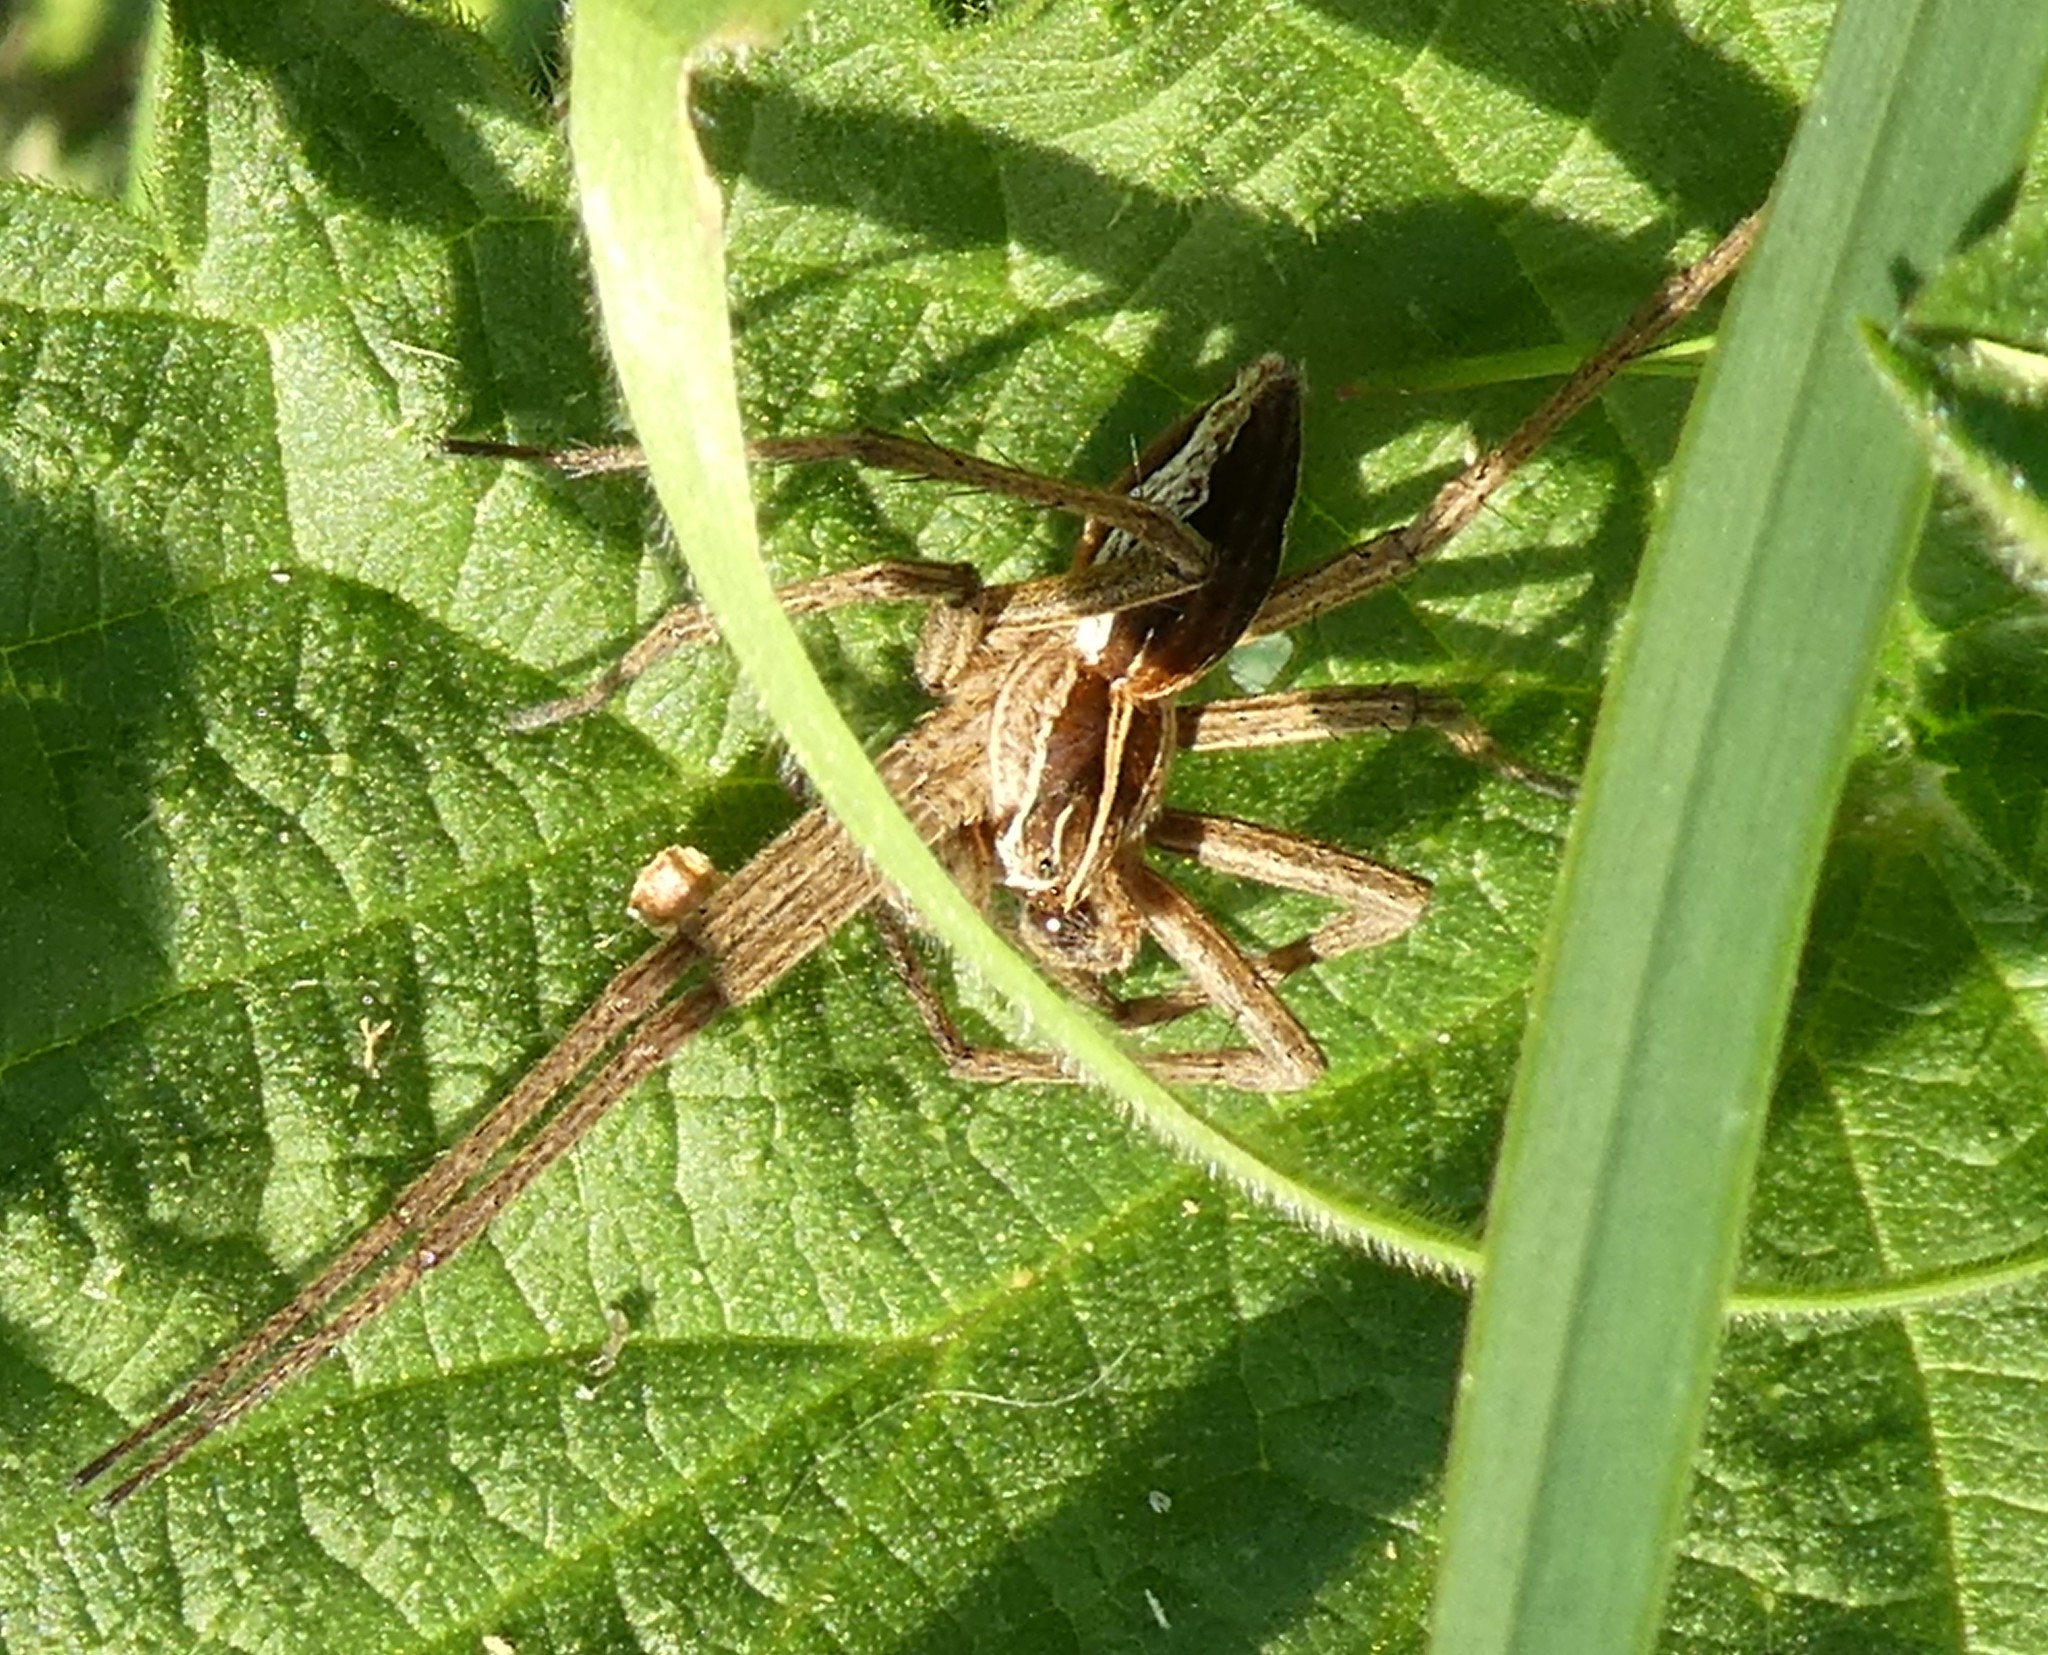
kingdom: Animalia
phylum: Arthropoda
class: Arachnida
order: Araneae
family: Pisauridae
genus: Pisaura
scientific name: Pisaura mirabilis
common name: Tent spider
